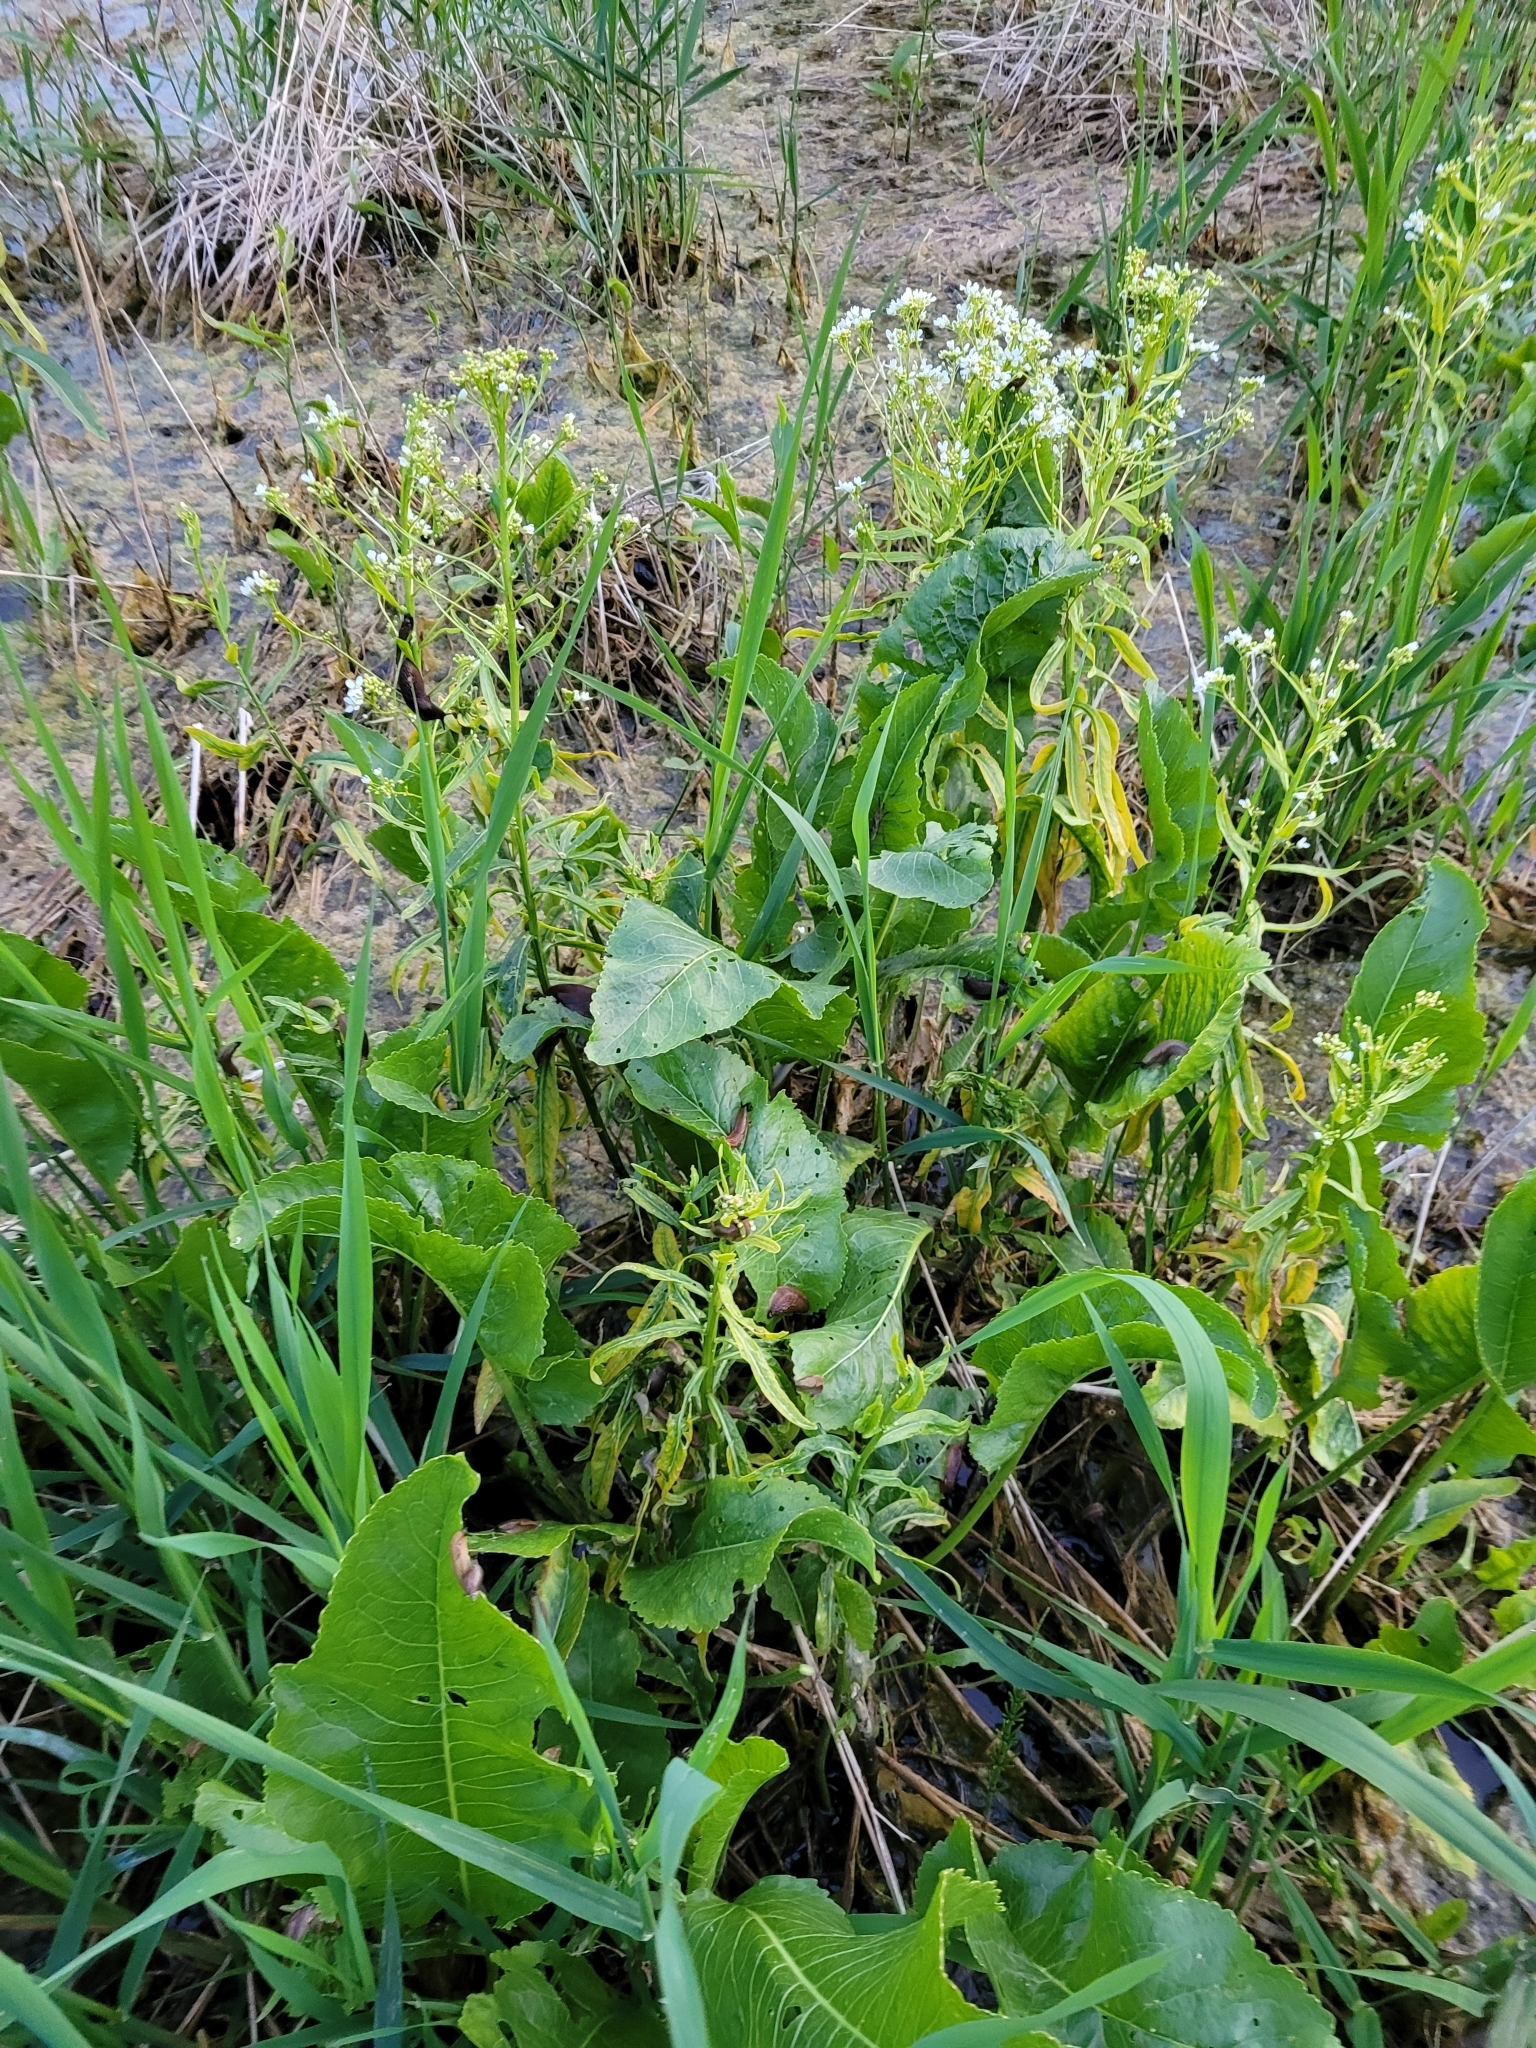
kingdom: Plantae
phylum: Tracheophyta
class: Magnoliopsida
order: Brassicales
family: Brassicaceae
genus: Armoracia
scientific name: Armoracia rusticana
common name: Horseradish
